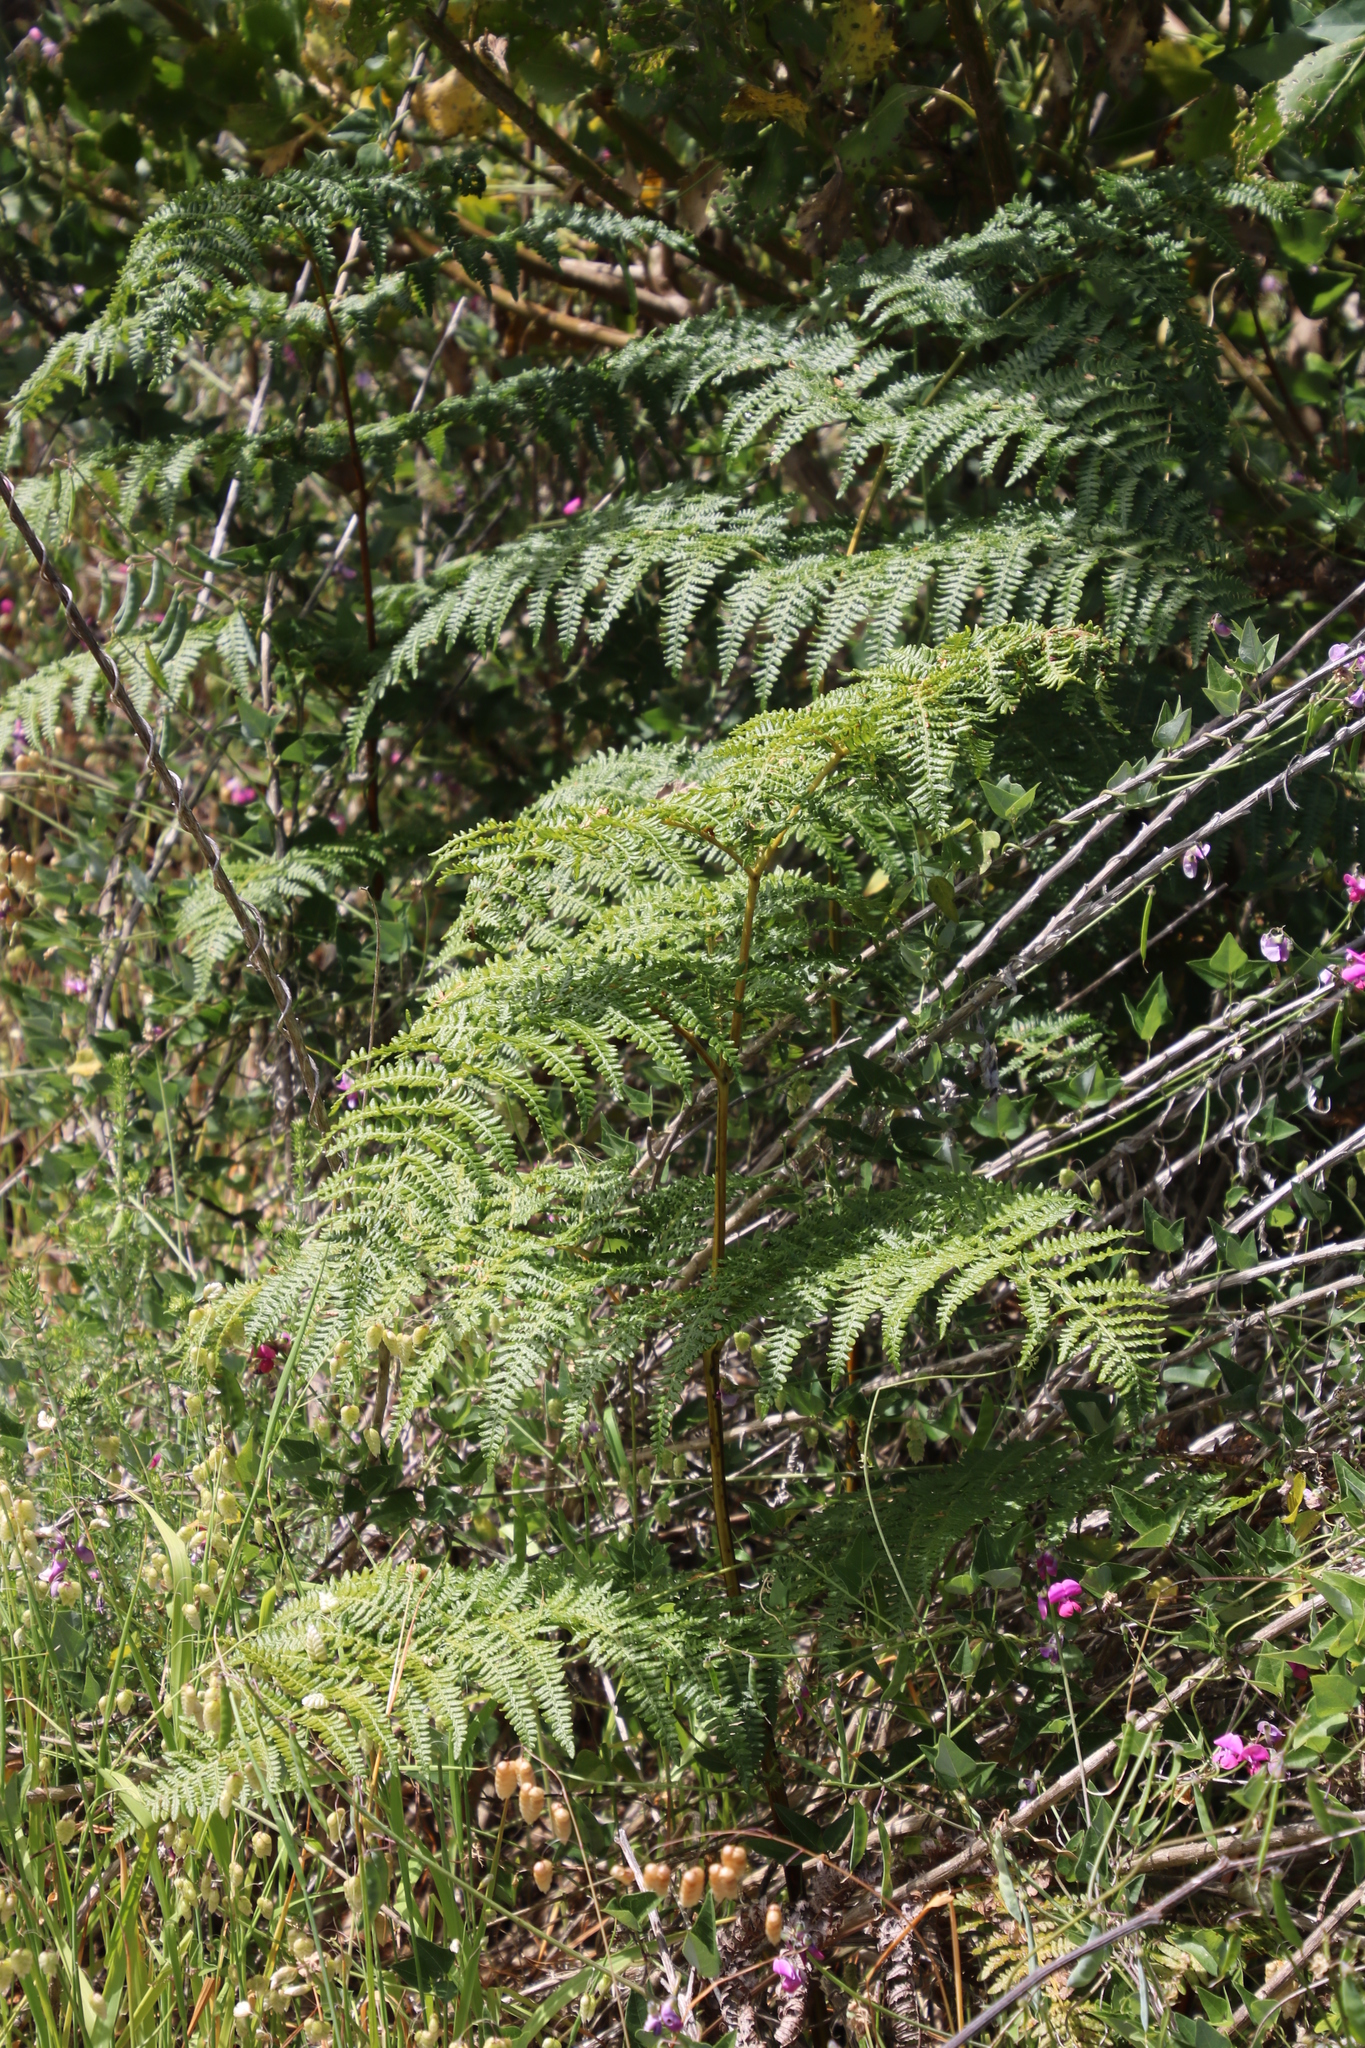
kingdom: Plantae
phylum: Tracheophyta
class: Polypodiopsida
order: Polypodiales
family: Dennstaedtiaceae
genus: Pteridium
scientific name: Pteridium aquilinum
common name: Bracken
